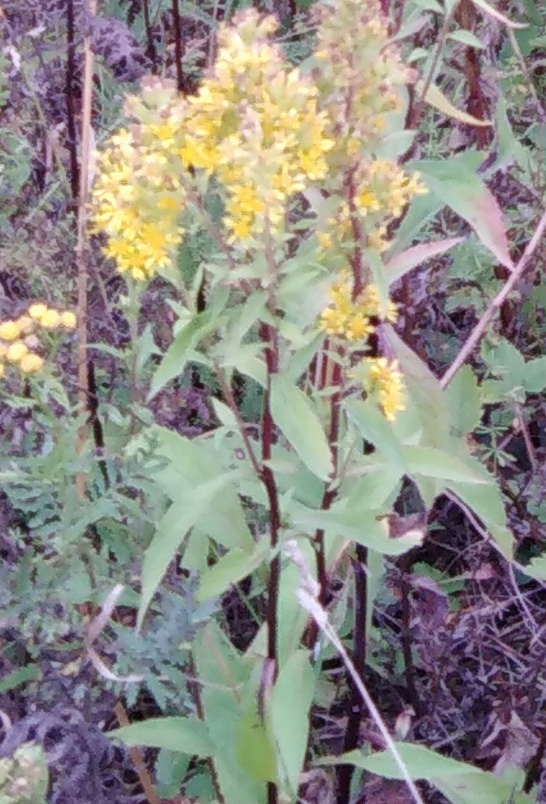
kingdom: Plantae
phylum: Tracheophyta
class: Magnoliopsida
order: Asterales
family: Asteraceae
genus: Solidago
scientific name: Solidago virgaurea
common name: Goldenrod
